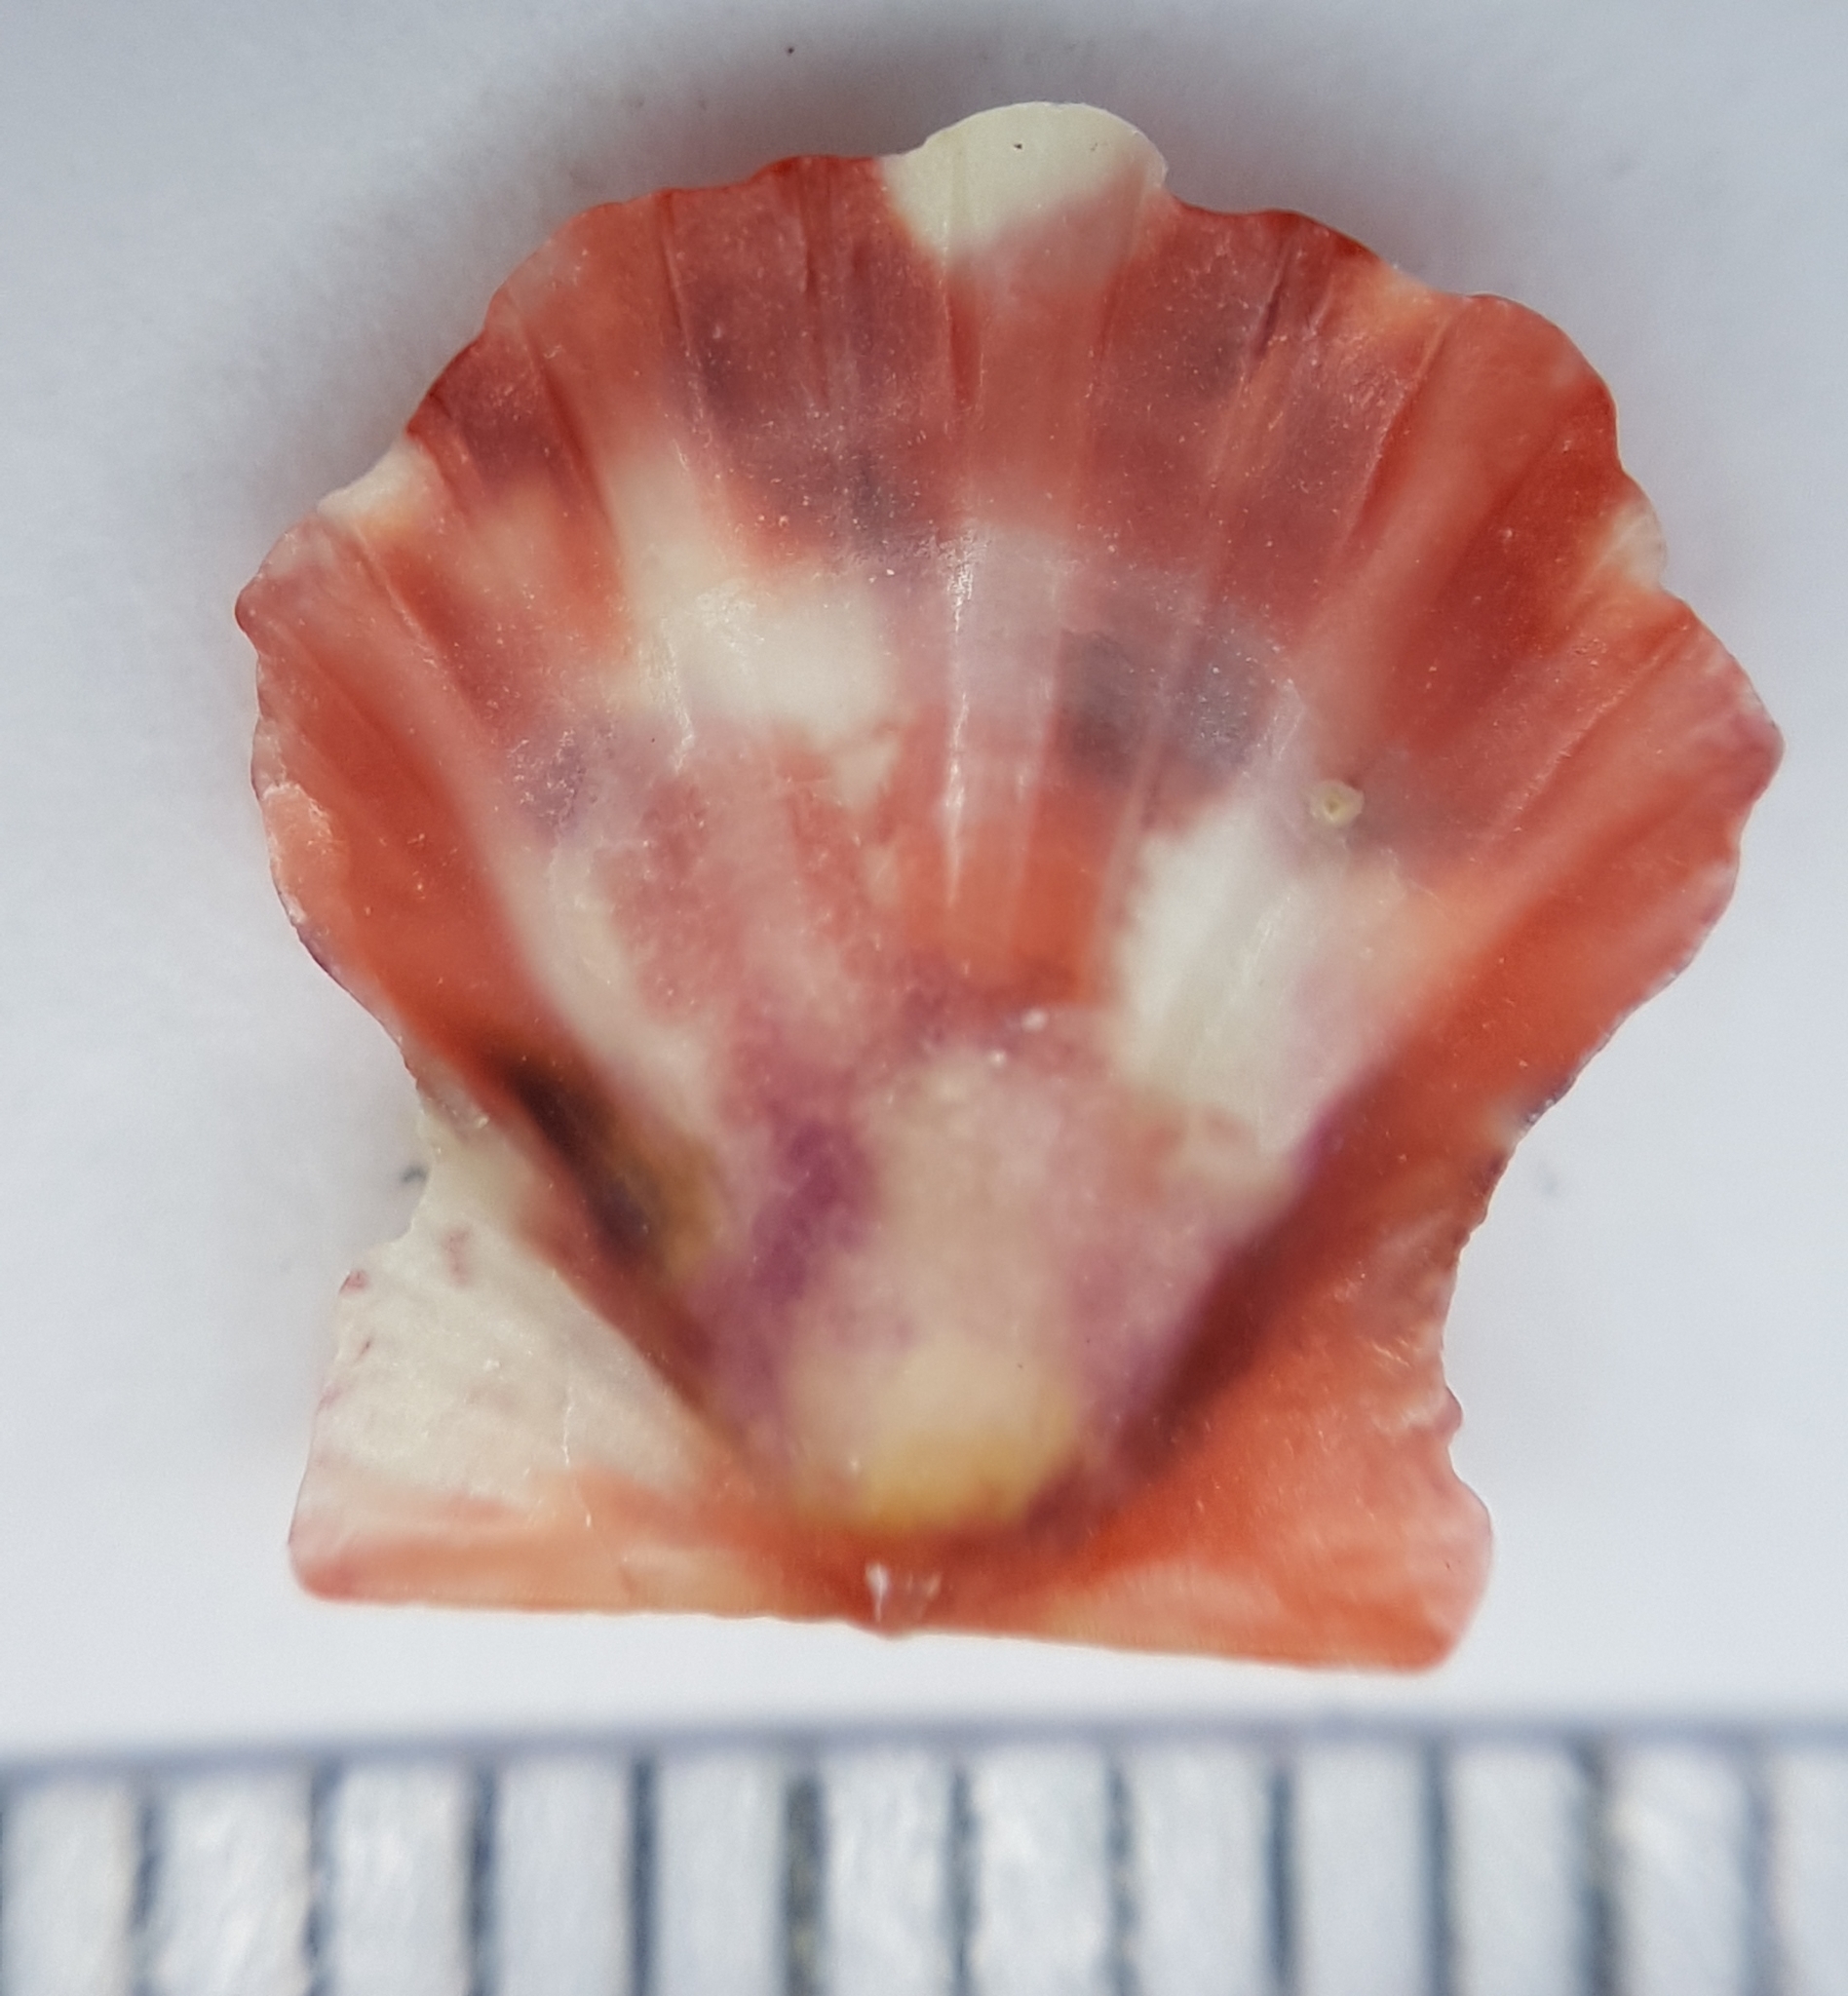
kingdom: Animalia
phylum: Mollusca
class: Bivalvia
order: Pectinida
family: Pectinidae
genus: Flexopecten
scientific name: Flexopecten flexuosus
